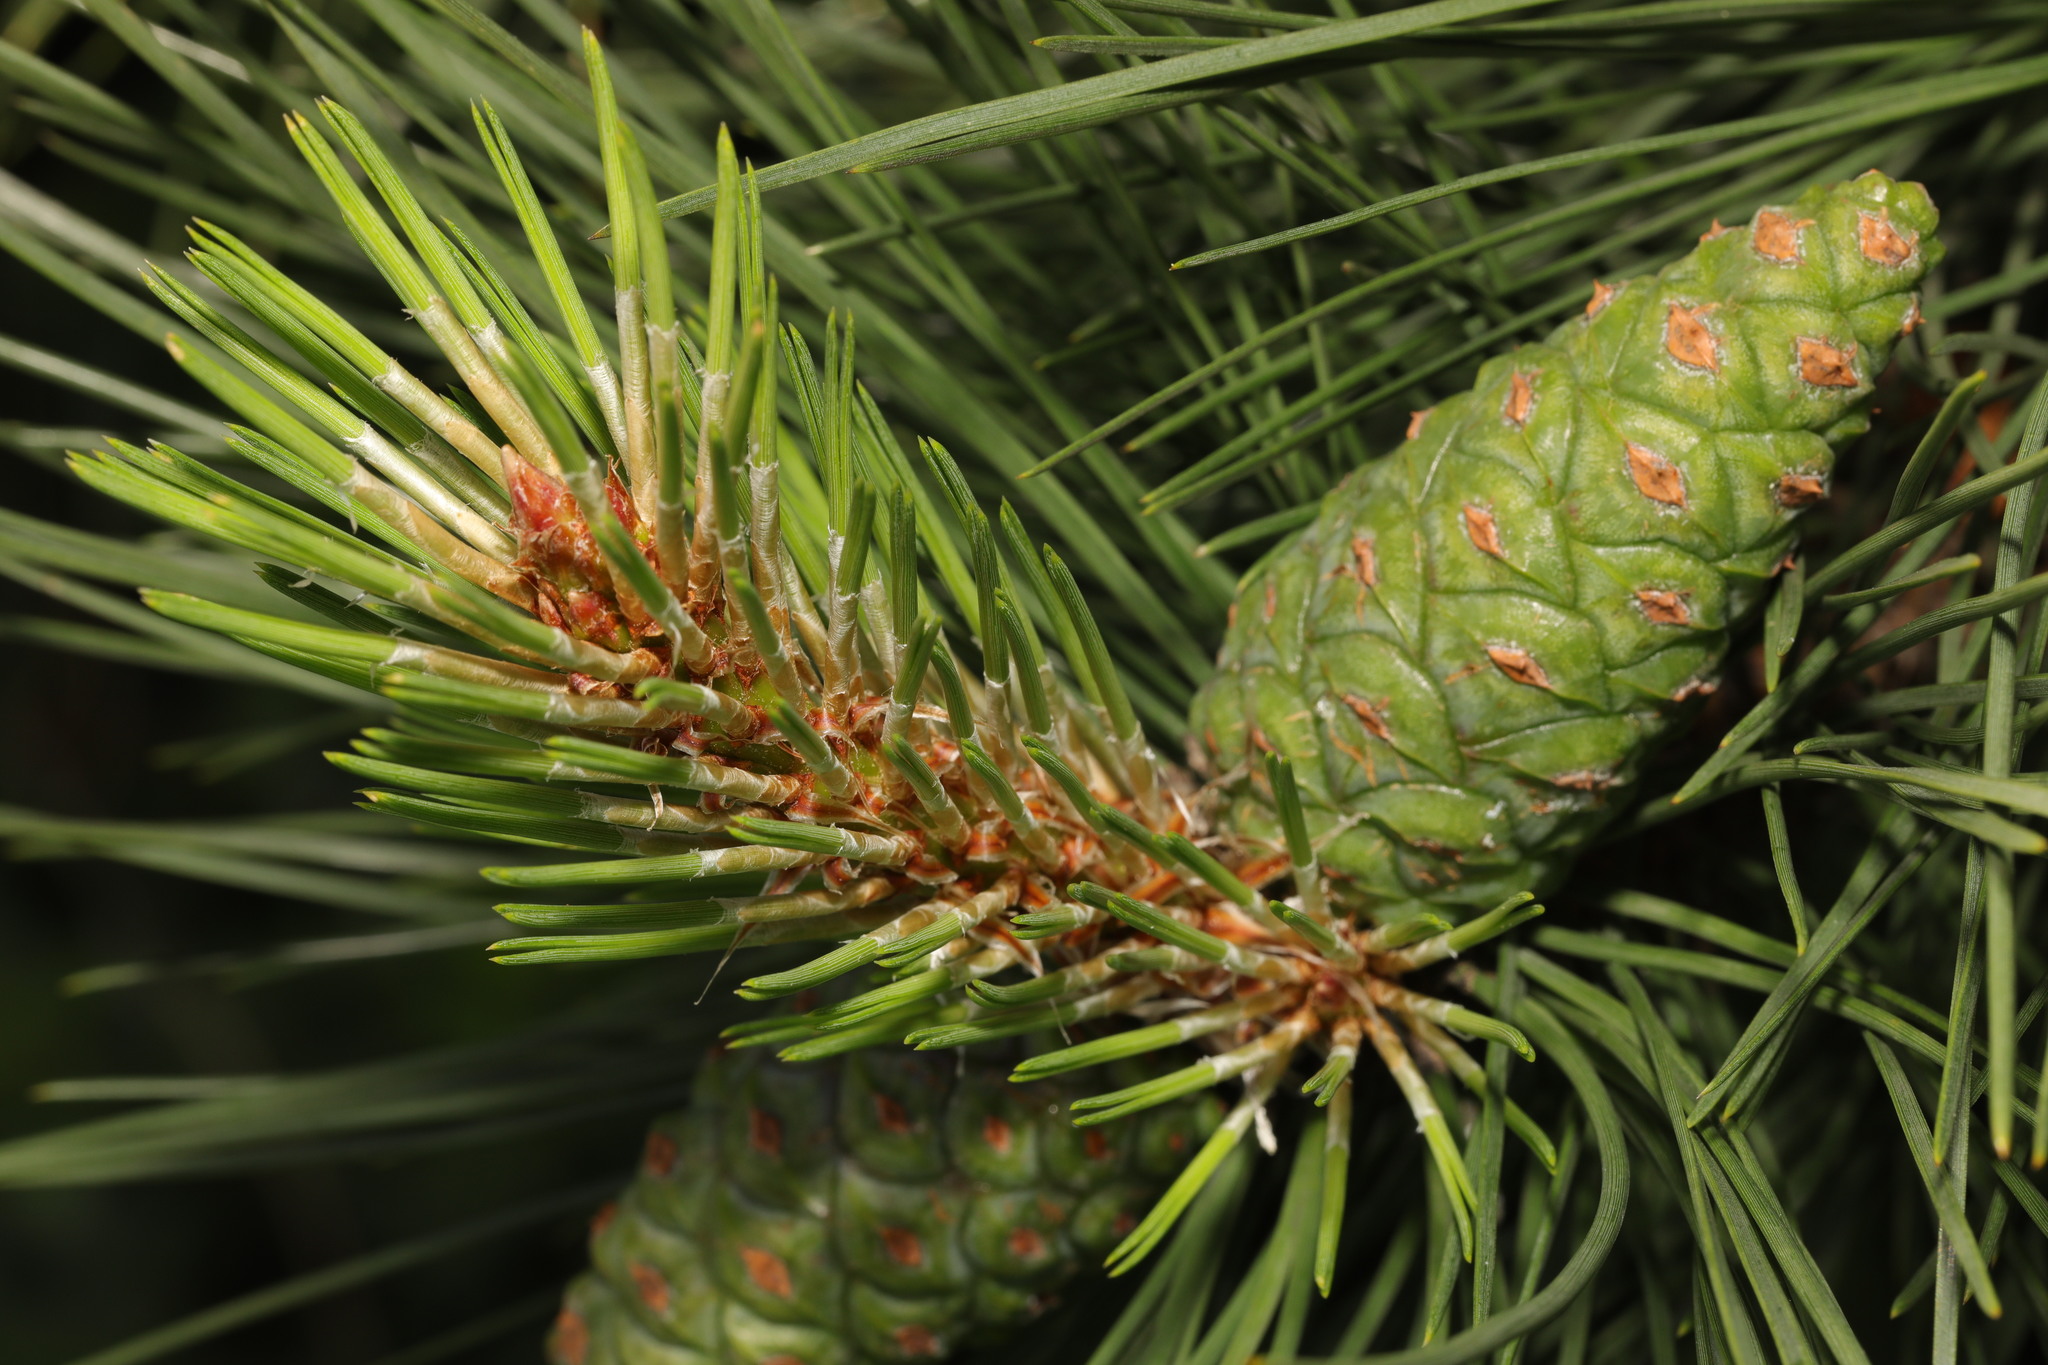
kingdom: Plantae
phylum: Tracheophyta
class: Pinopsida
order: Pinales
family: Pinaceae
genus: Pinus
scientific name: Pinus sylvestris
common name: Scots pine
